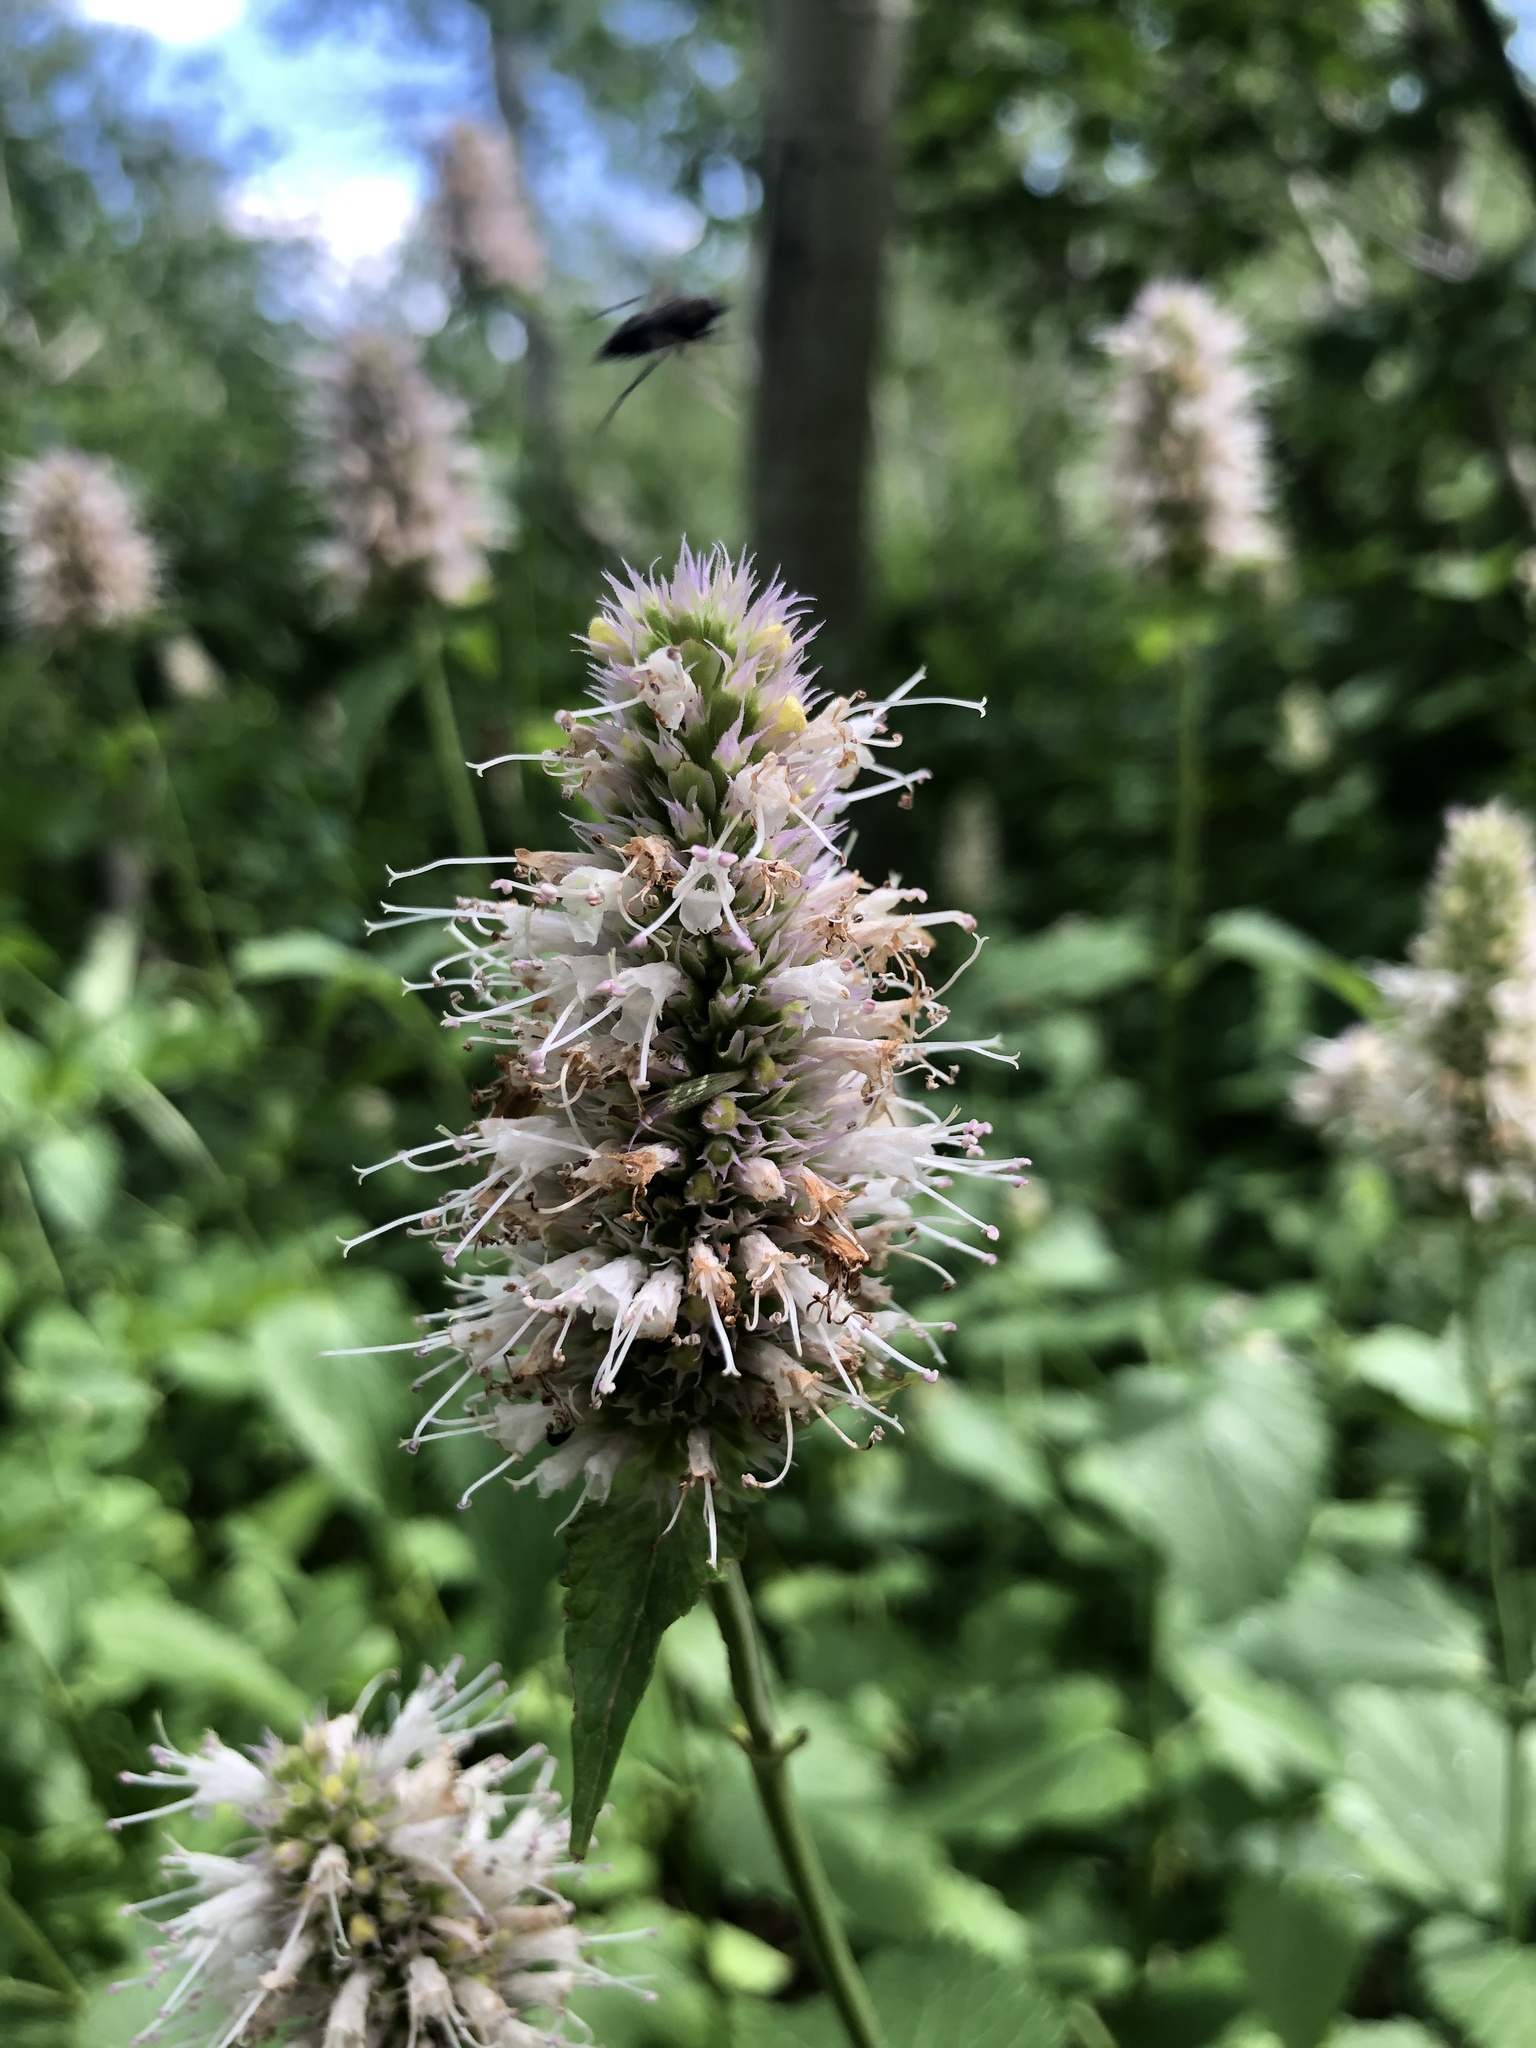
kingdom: Plantae
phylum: Tracheophyta
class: Magnoliopsida
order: Lamiales
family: Lamiaceae
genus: Agastache
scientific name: Agastache urticifolia
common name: Horsemint giant hyssop
